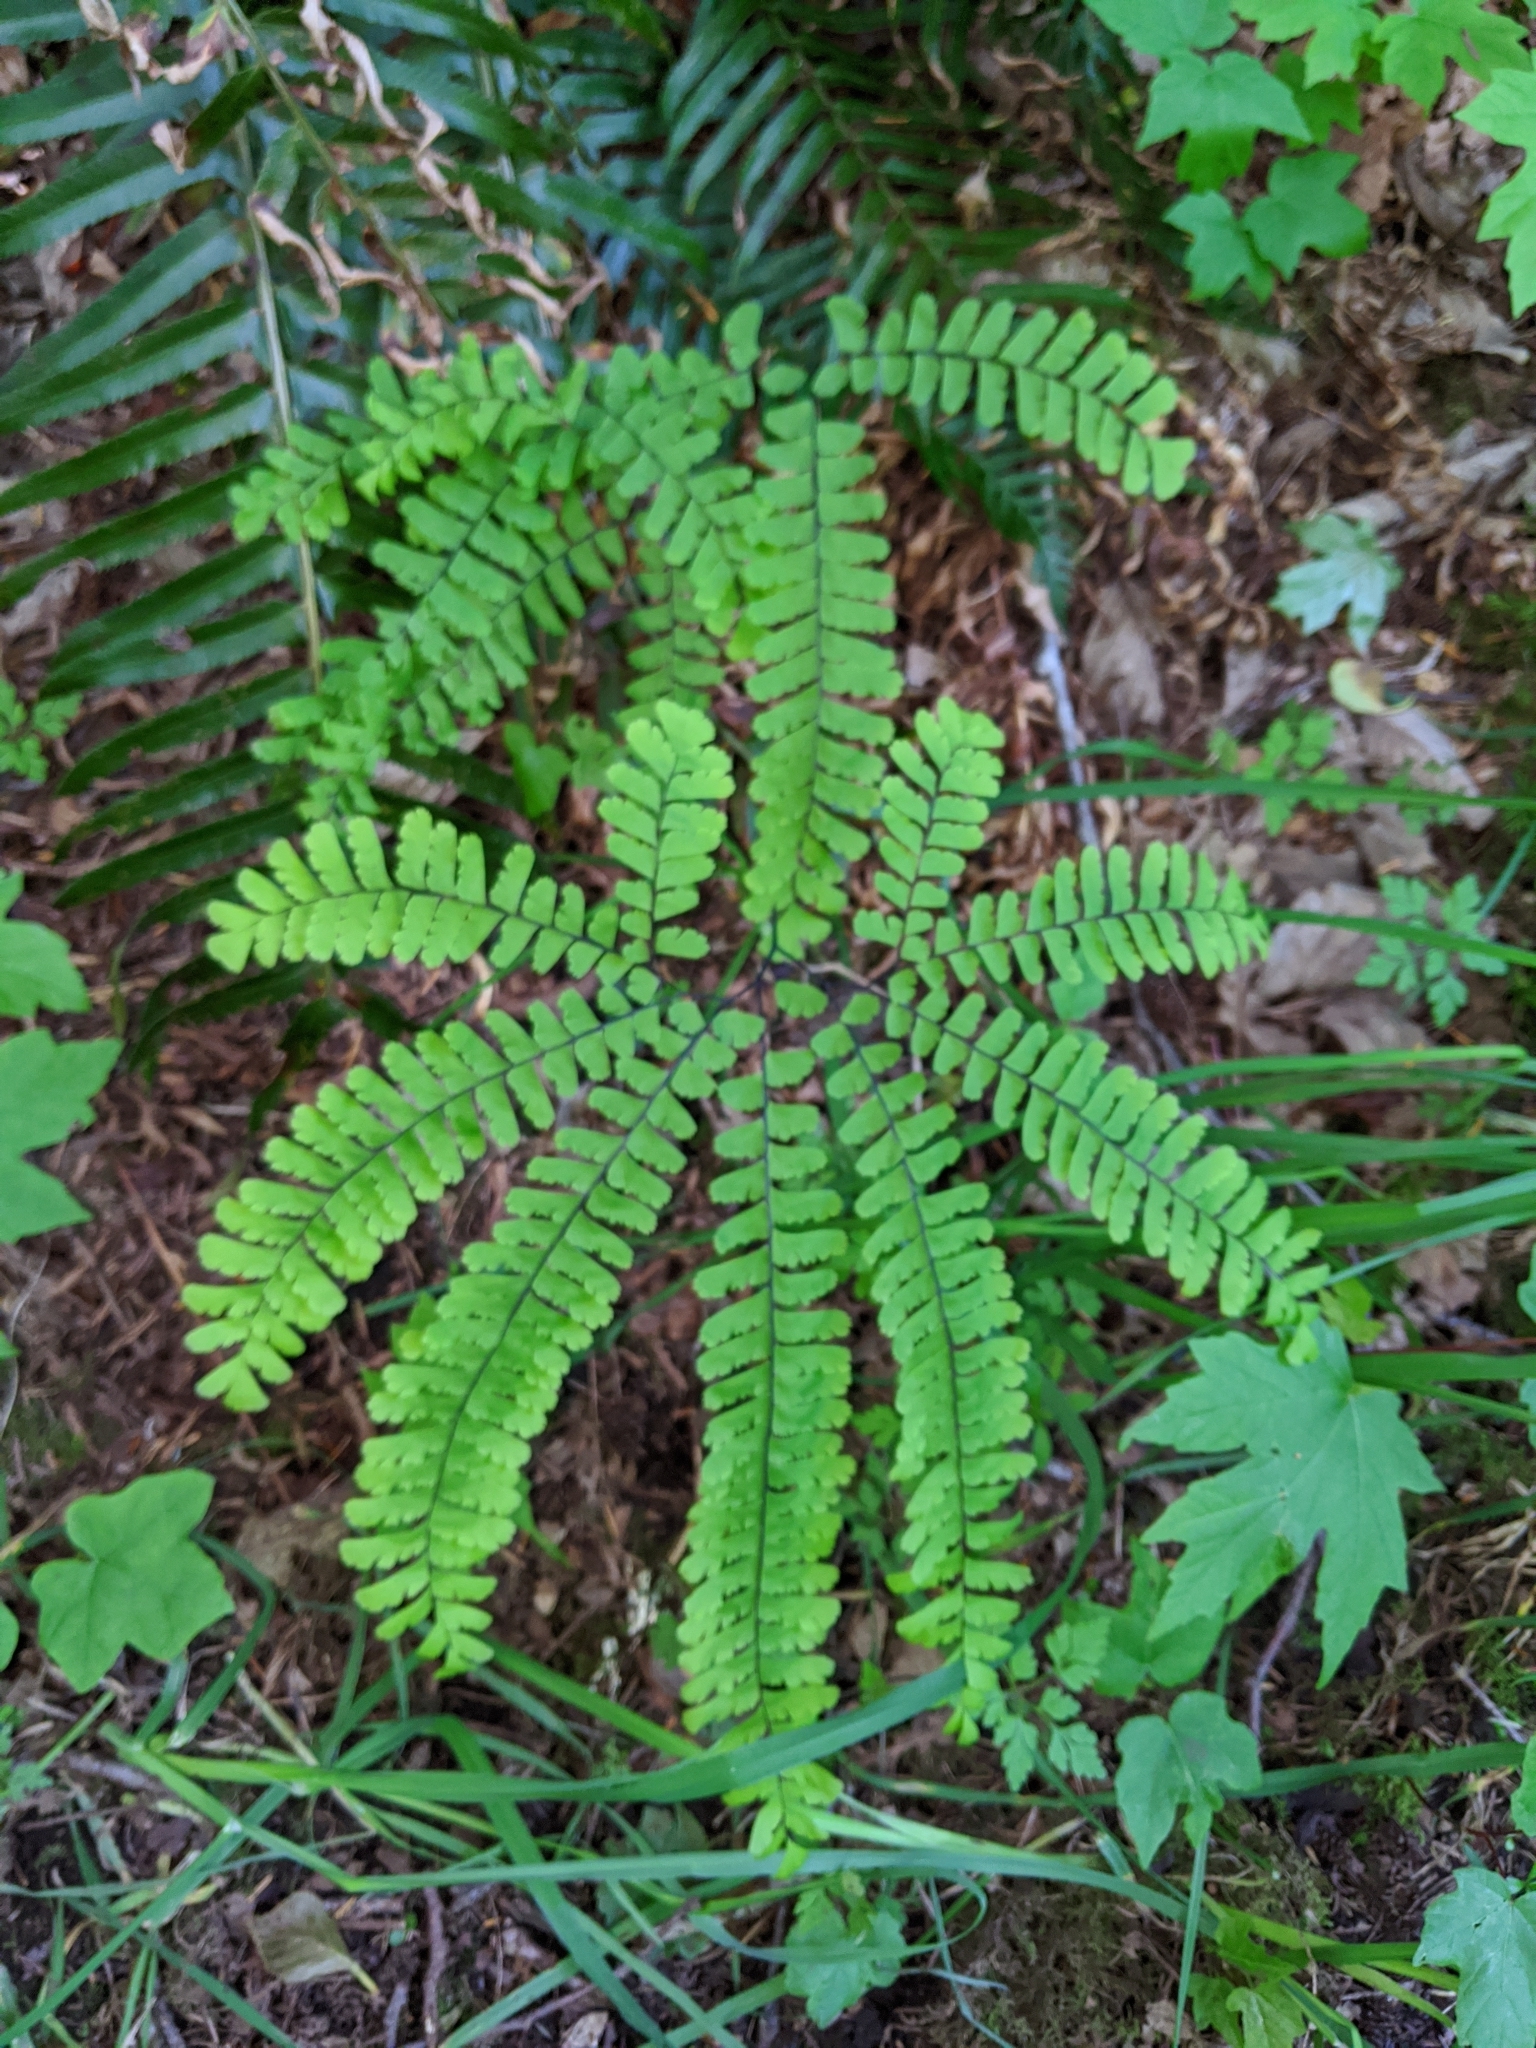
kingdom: Plantae
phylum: Tracheophyta
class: Polypodiopsida
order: Polypodiales
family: Pteridaceae
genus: Adiantum
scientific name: Adiantum aleuticum
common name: Aleutian maidenhair fern
